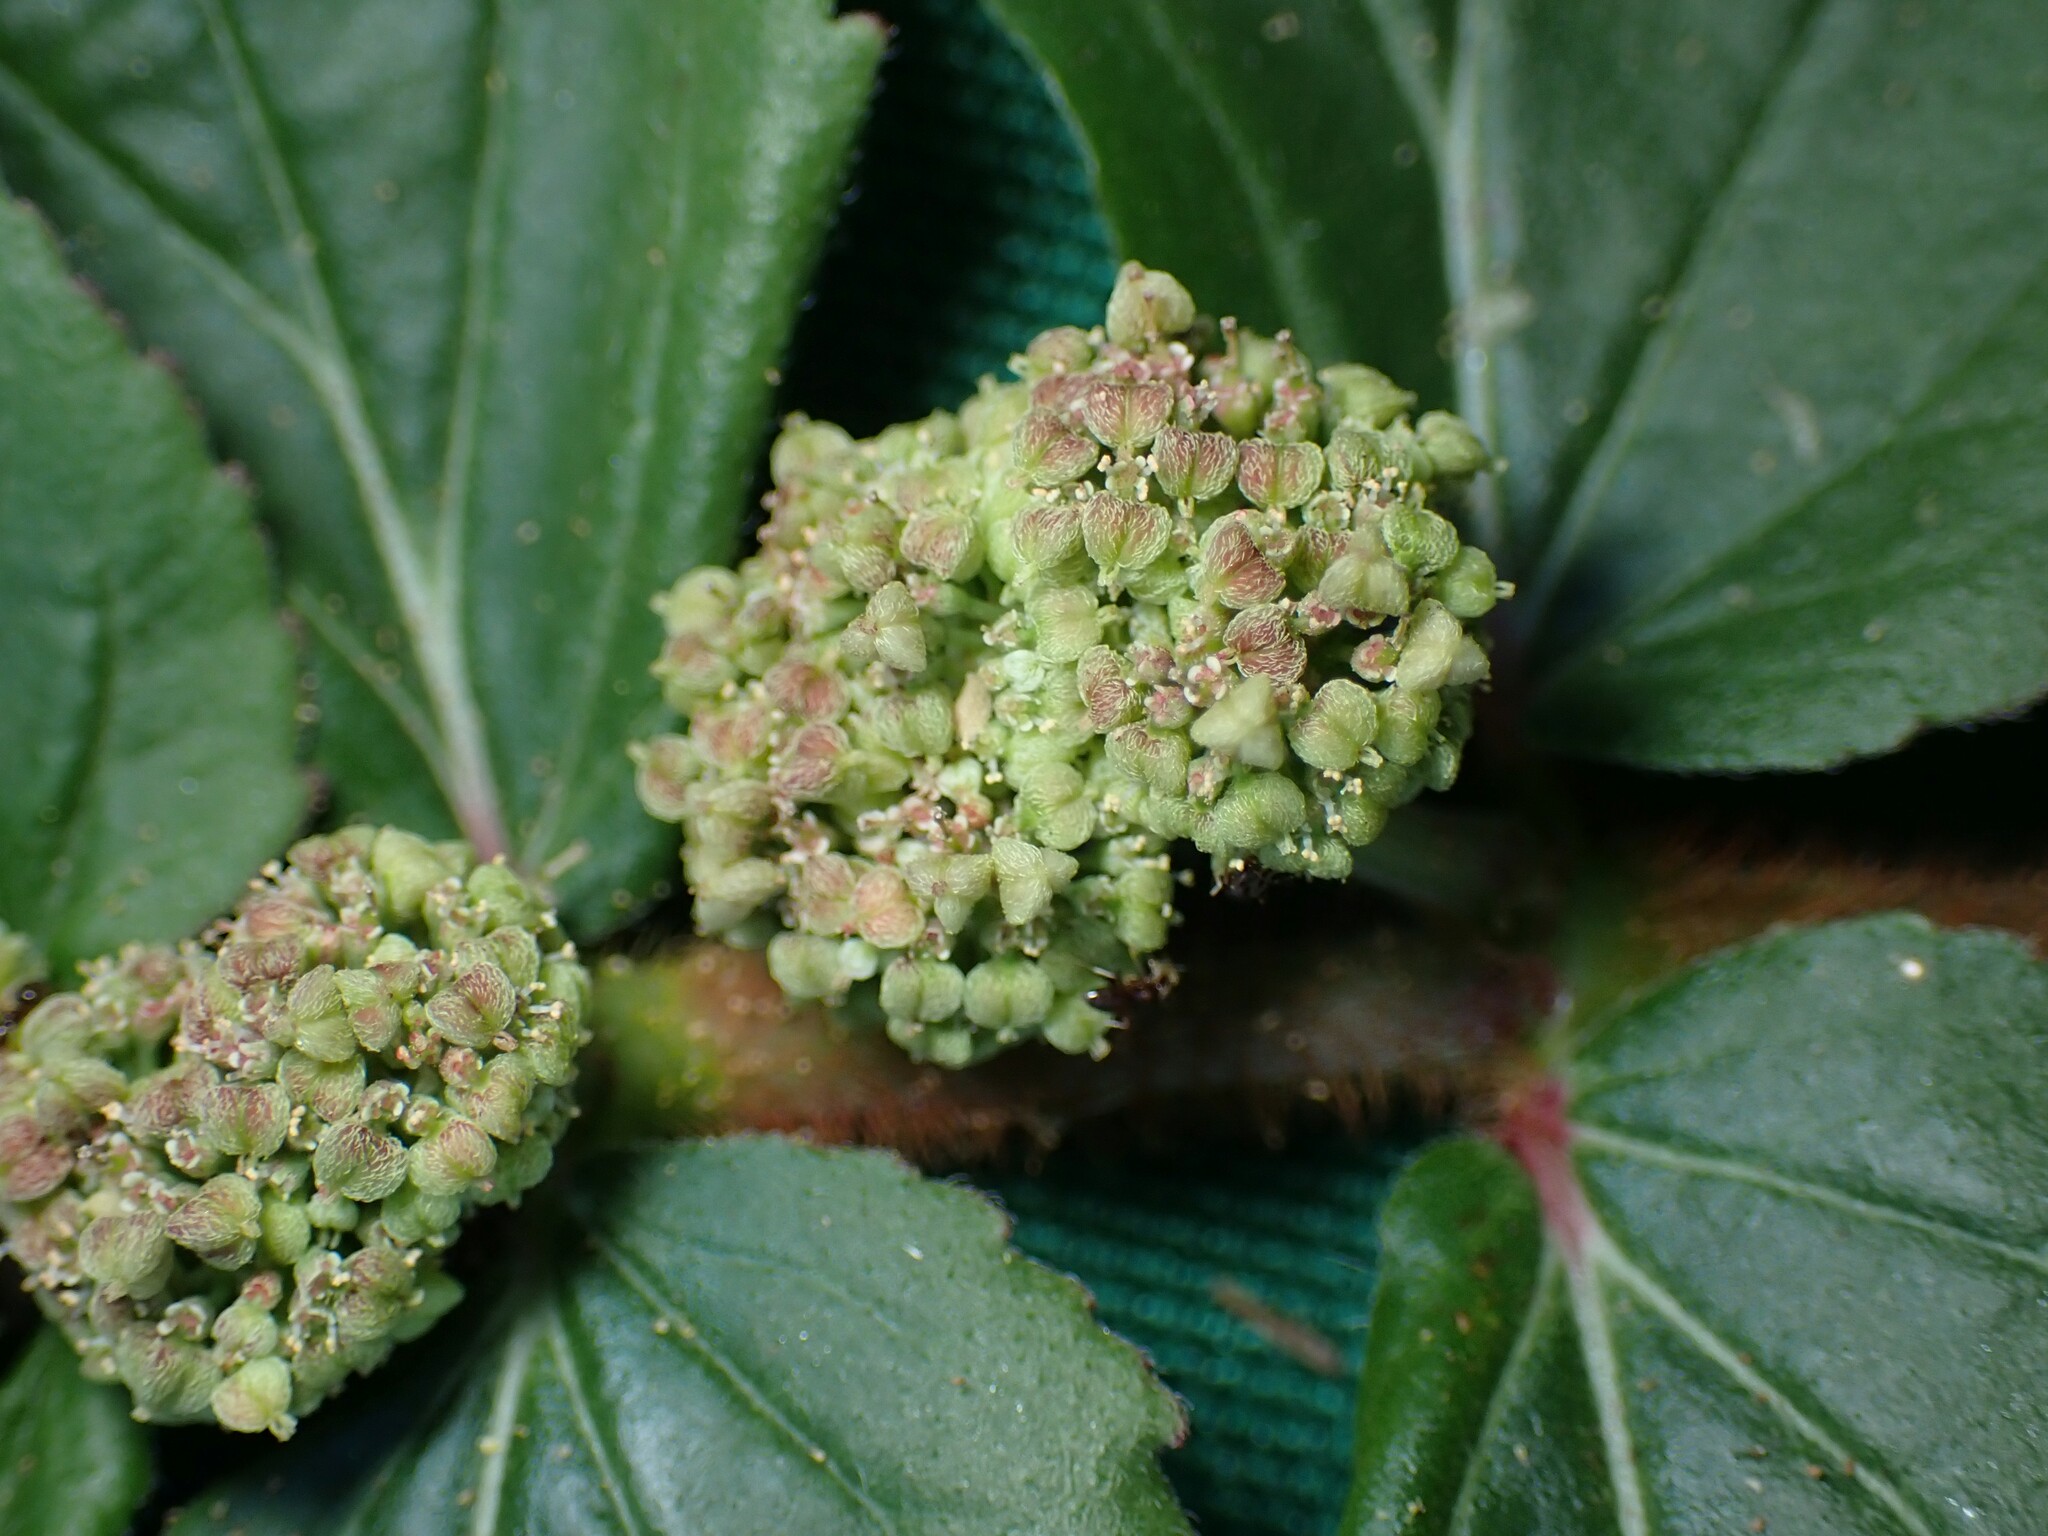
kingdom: Plantae
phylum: Tracheophyta
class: Magnoliopsida
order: Malpighiales
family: Euphorbiaceae
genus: Euphorbia
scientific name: Euphorbia hirta
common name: Pillpod sandmat
